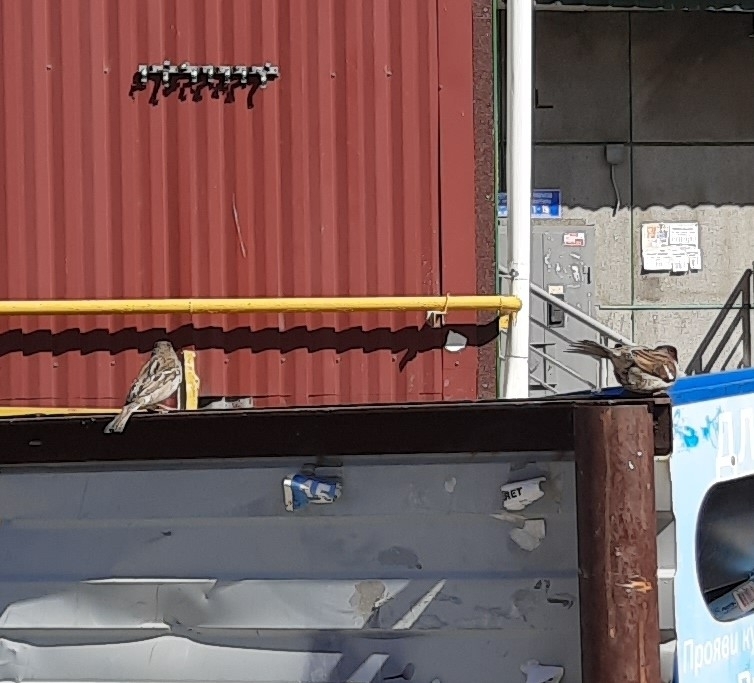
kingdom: Animalia
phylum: Chordata
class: Aves
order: Passeriformes
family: Passeridae
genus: Passer
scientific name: Passer domesticus
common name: House sparrow
